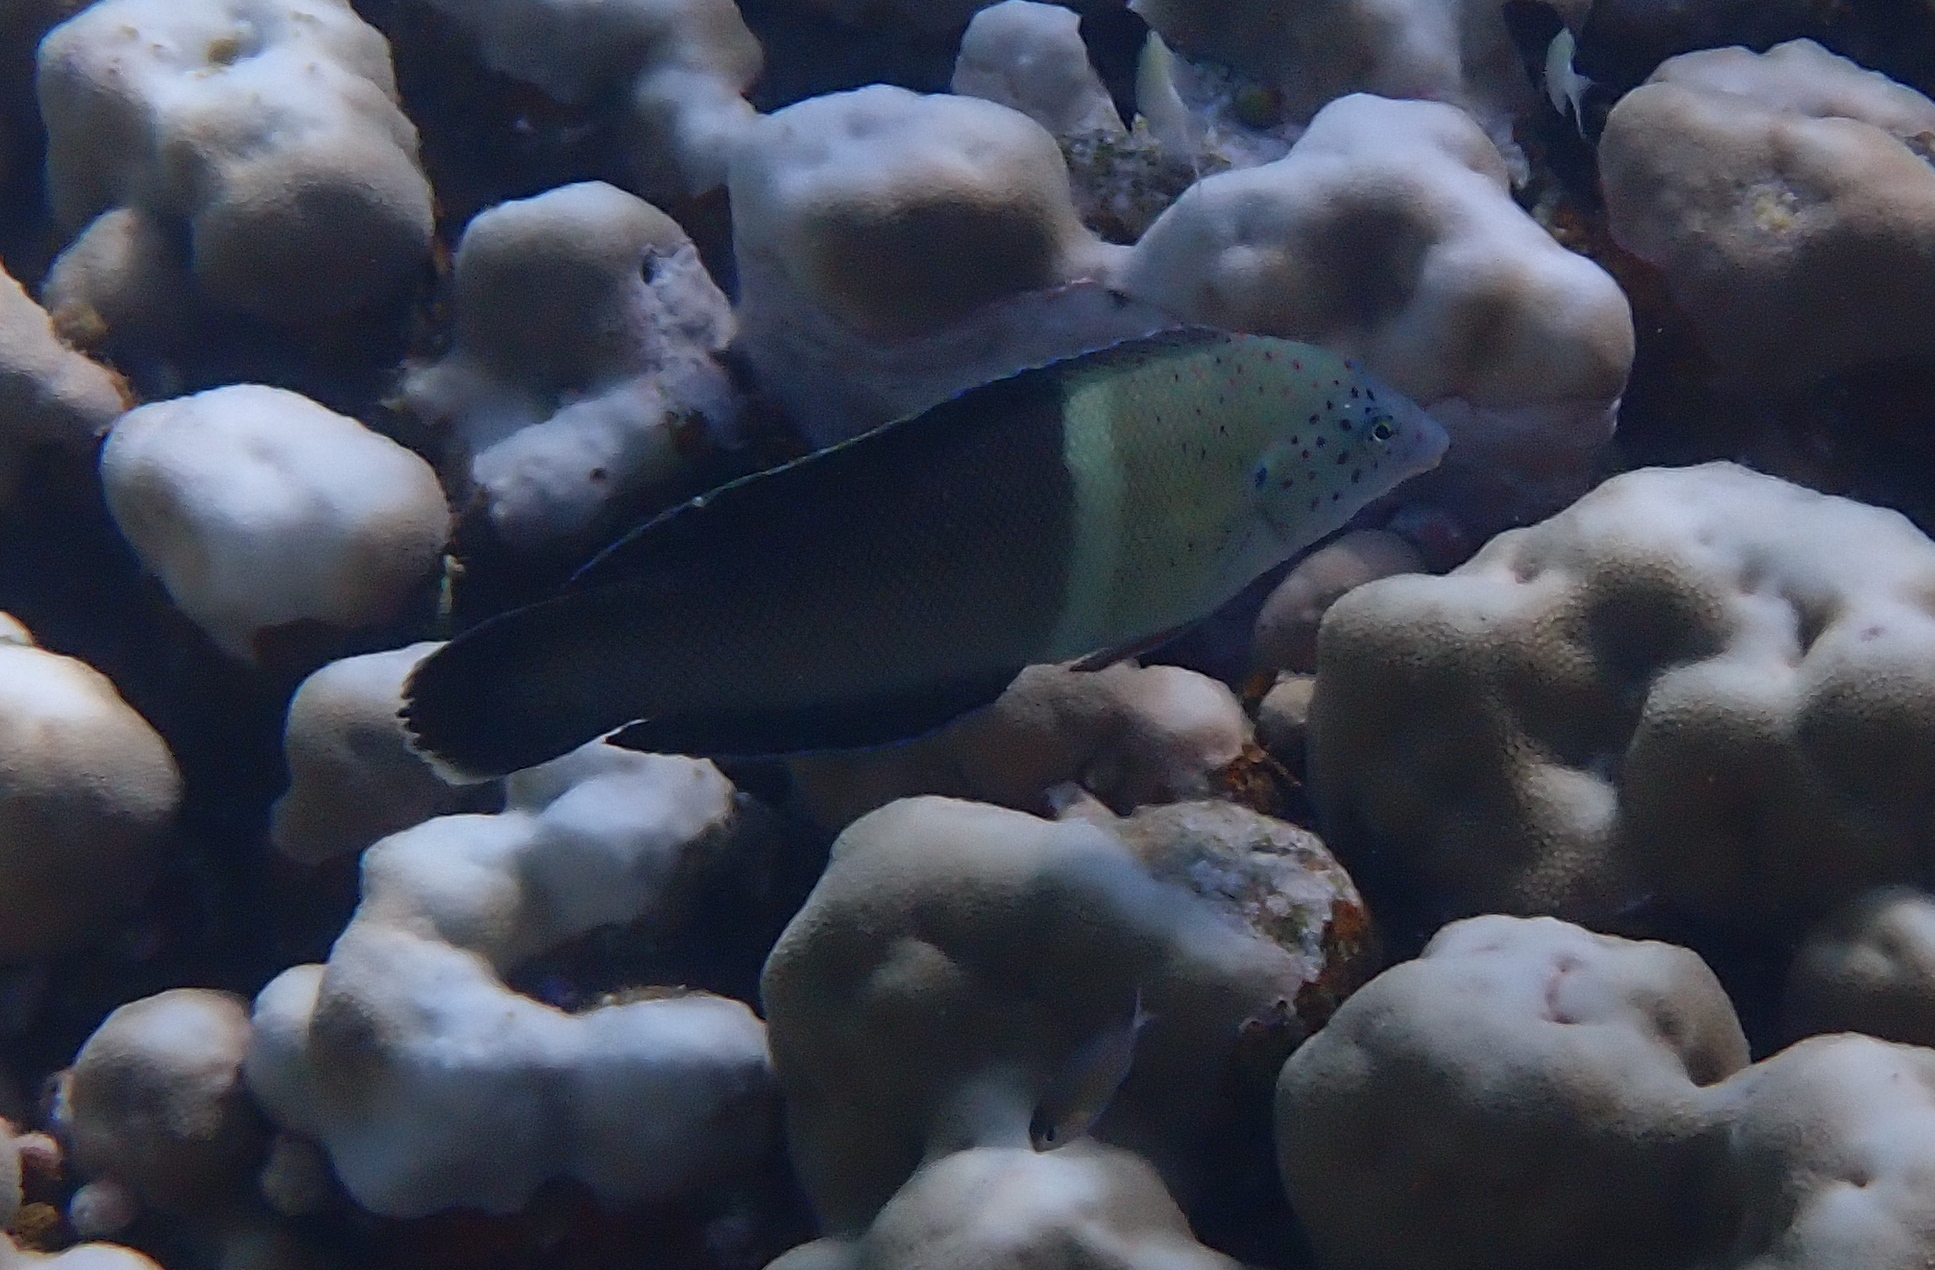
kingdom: Animalia
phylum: Chordata
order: Perciformes
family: Labridae
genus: Coris
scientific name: Coris aygula
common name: Clown coris
